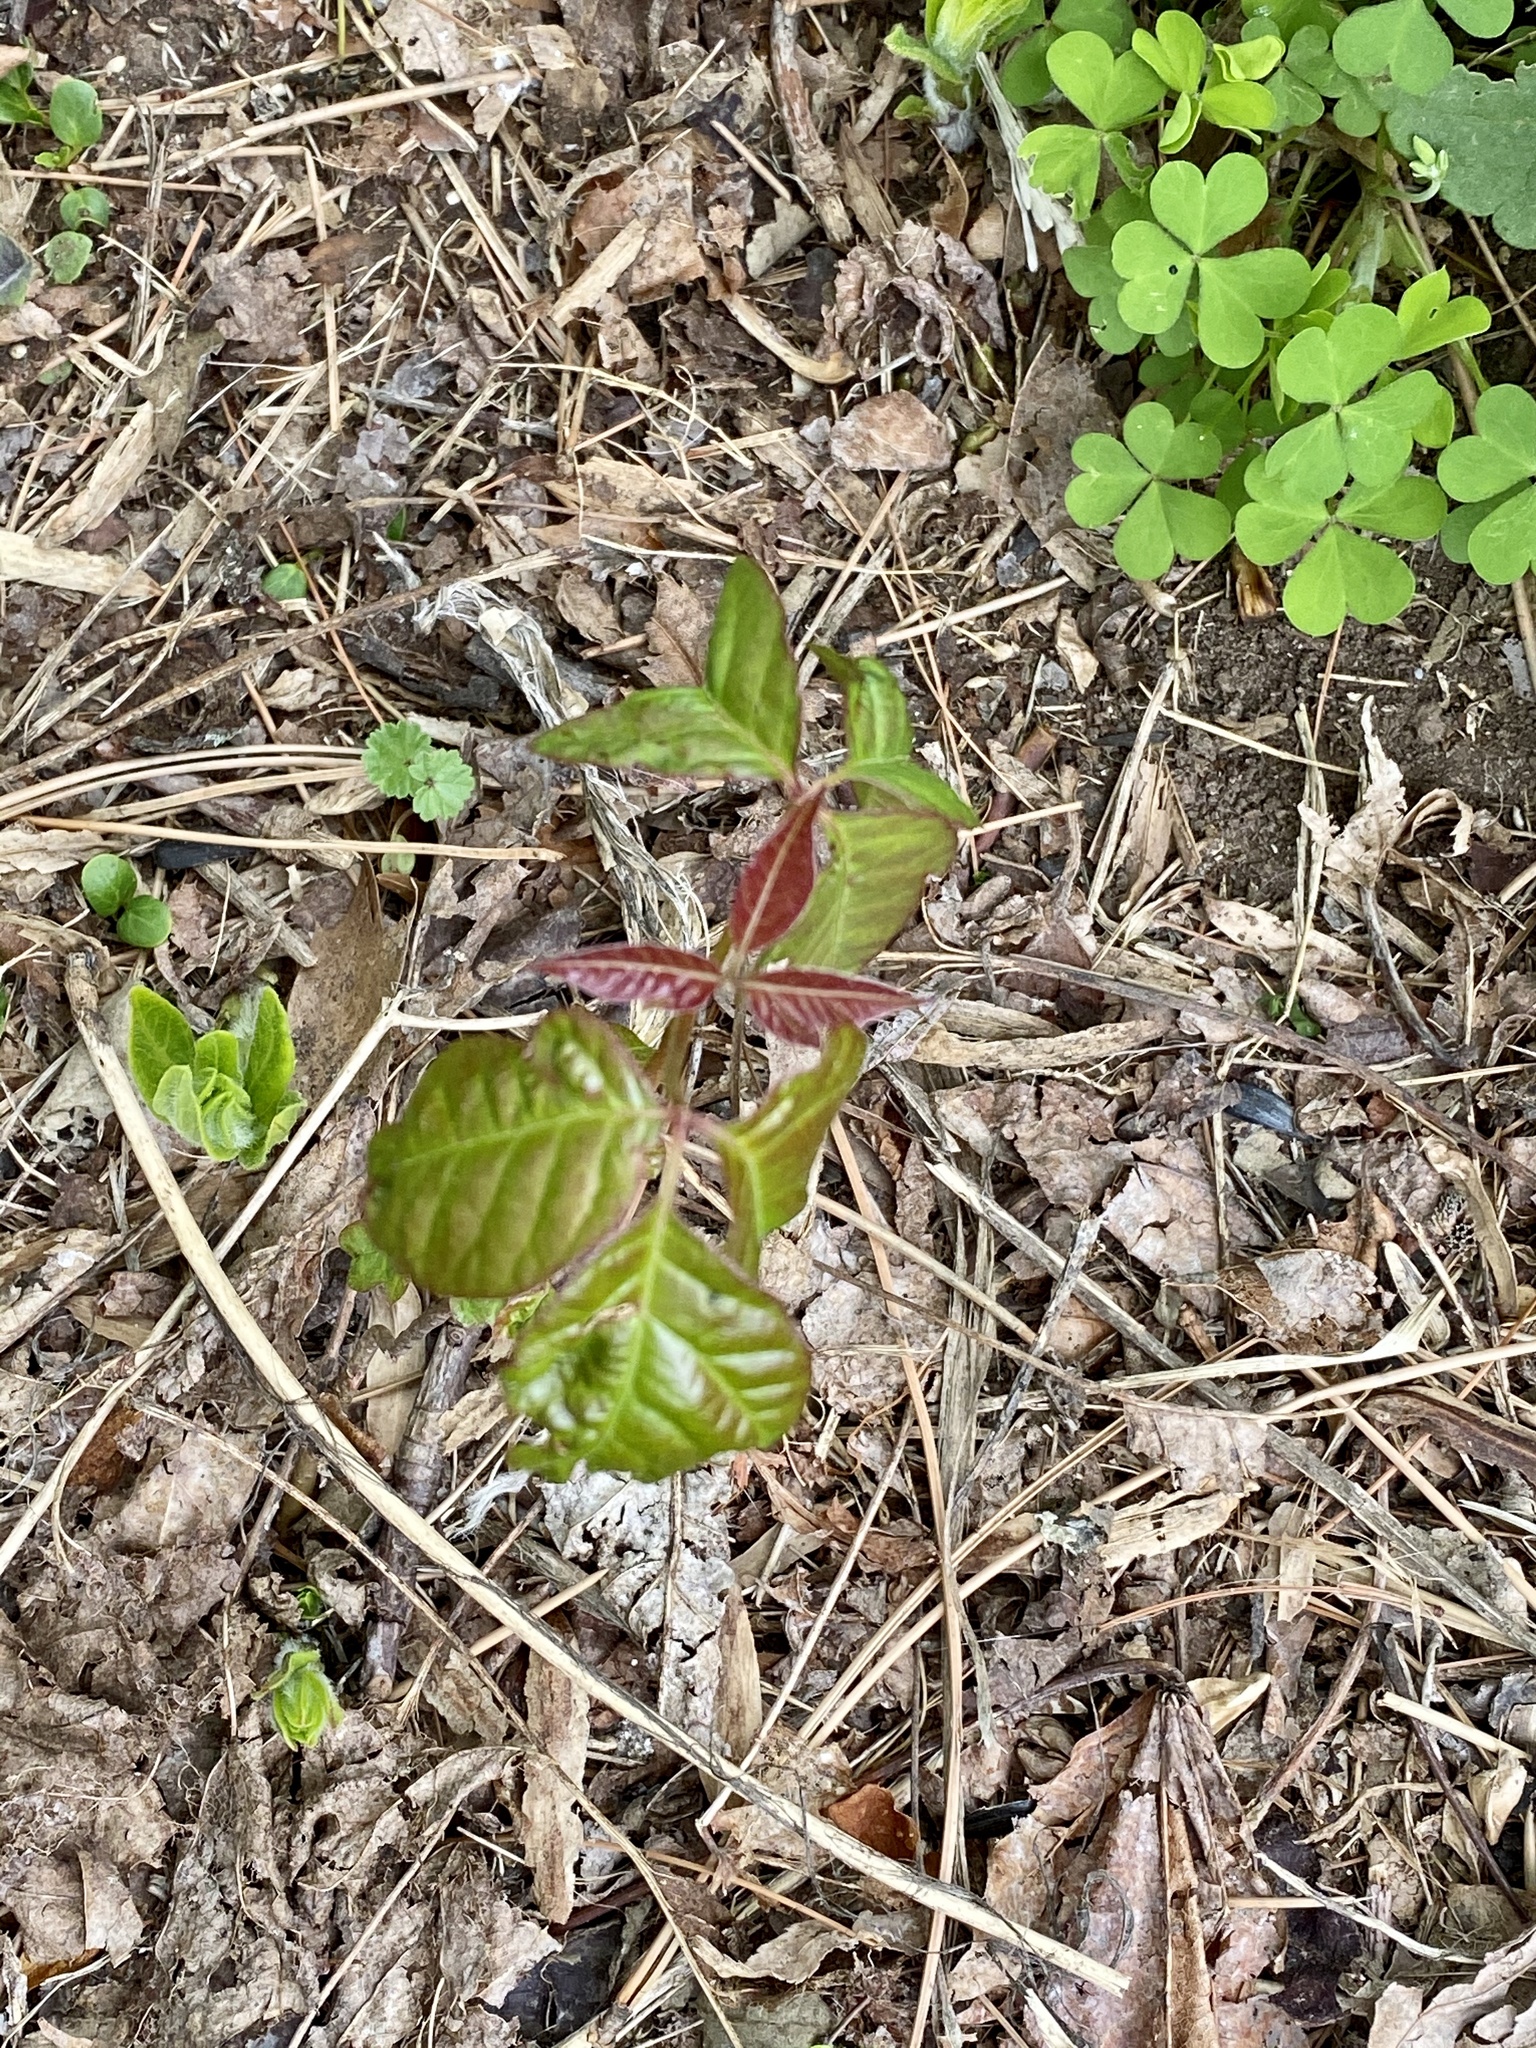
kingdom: Plantae
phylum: Tracheophyta
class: Magnoliopsida
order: Sapindales
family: Anacardiaceae
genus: Toxicodendron
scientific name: Toxicodendron radicans
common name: Poison ivy
